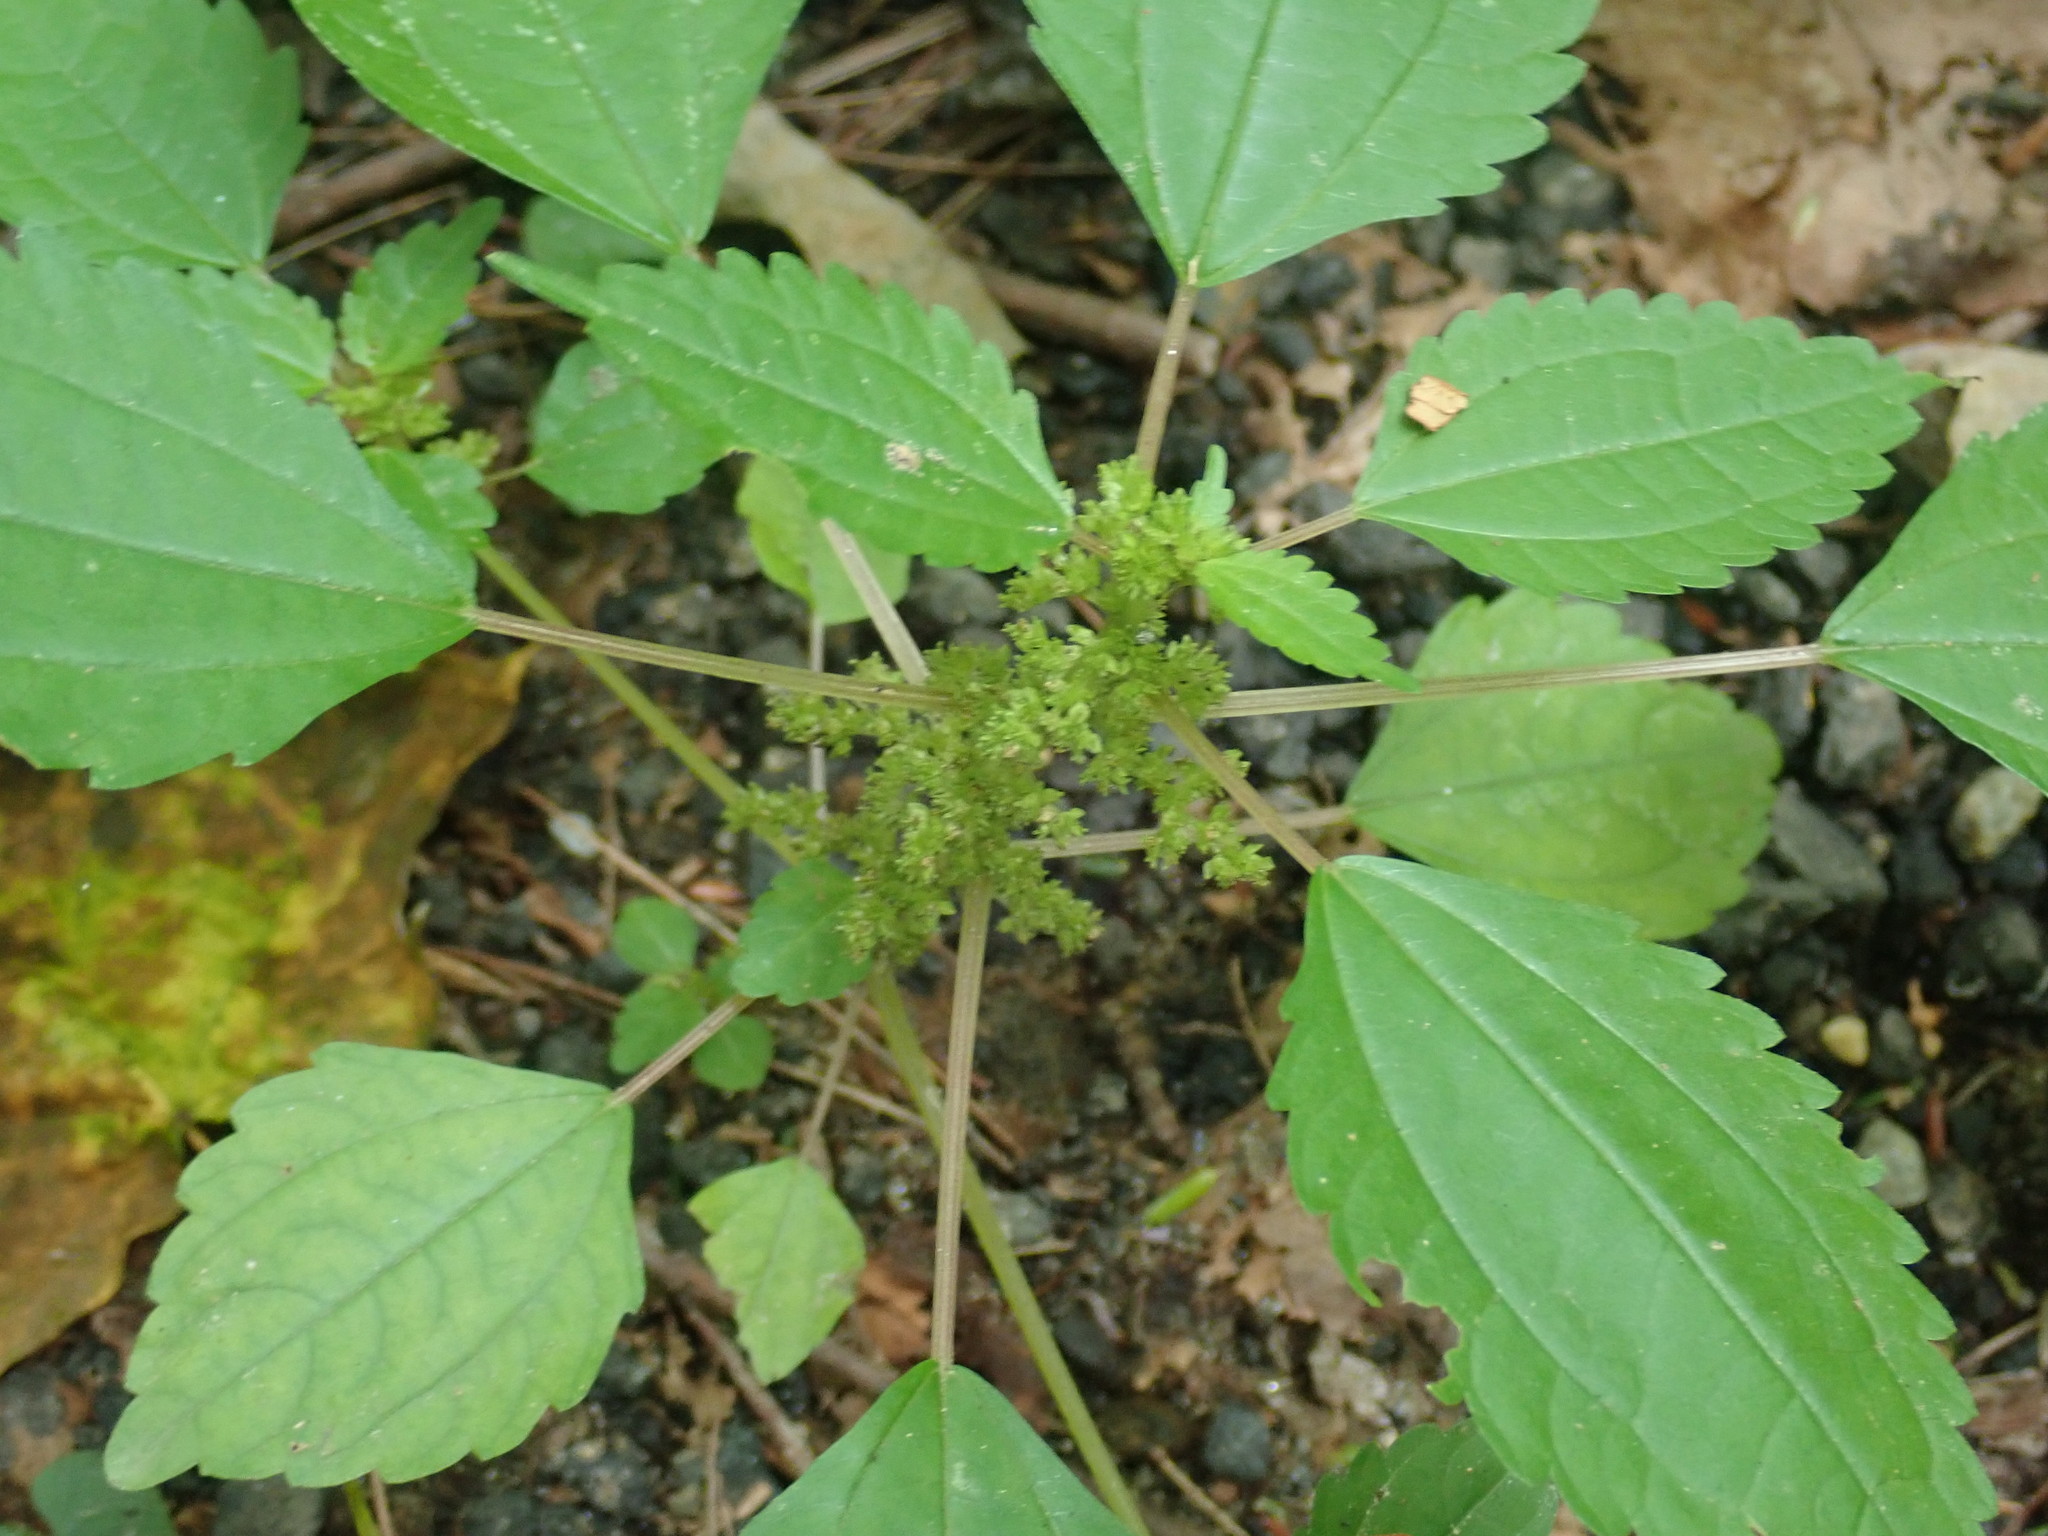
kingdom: Plantae
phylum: Tracheophyta
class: Magnoliopsida
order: Rosales
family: Urticaceae
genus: Pilea
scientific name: Pilea pumila
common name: Clearweed
